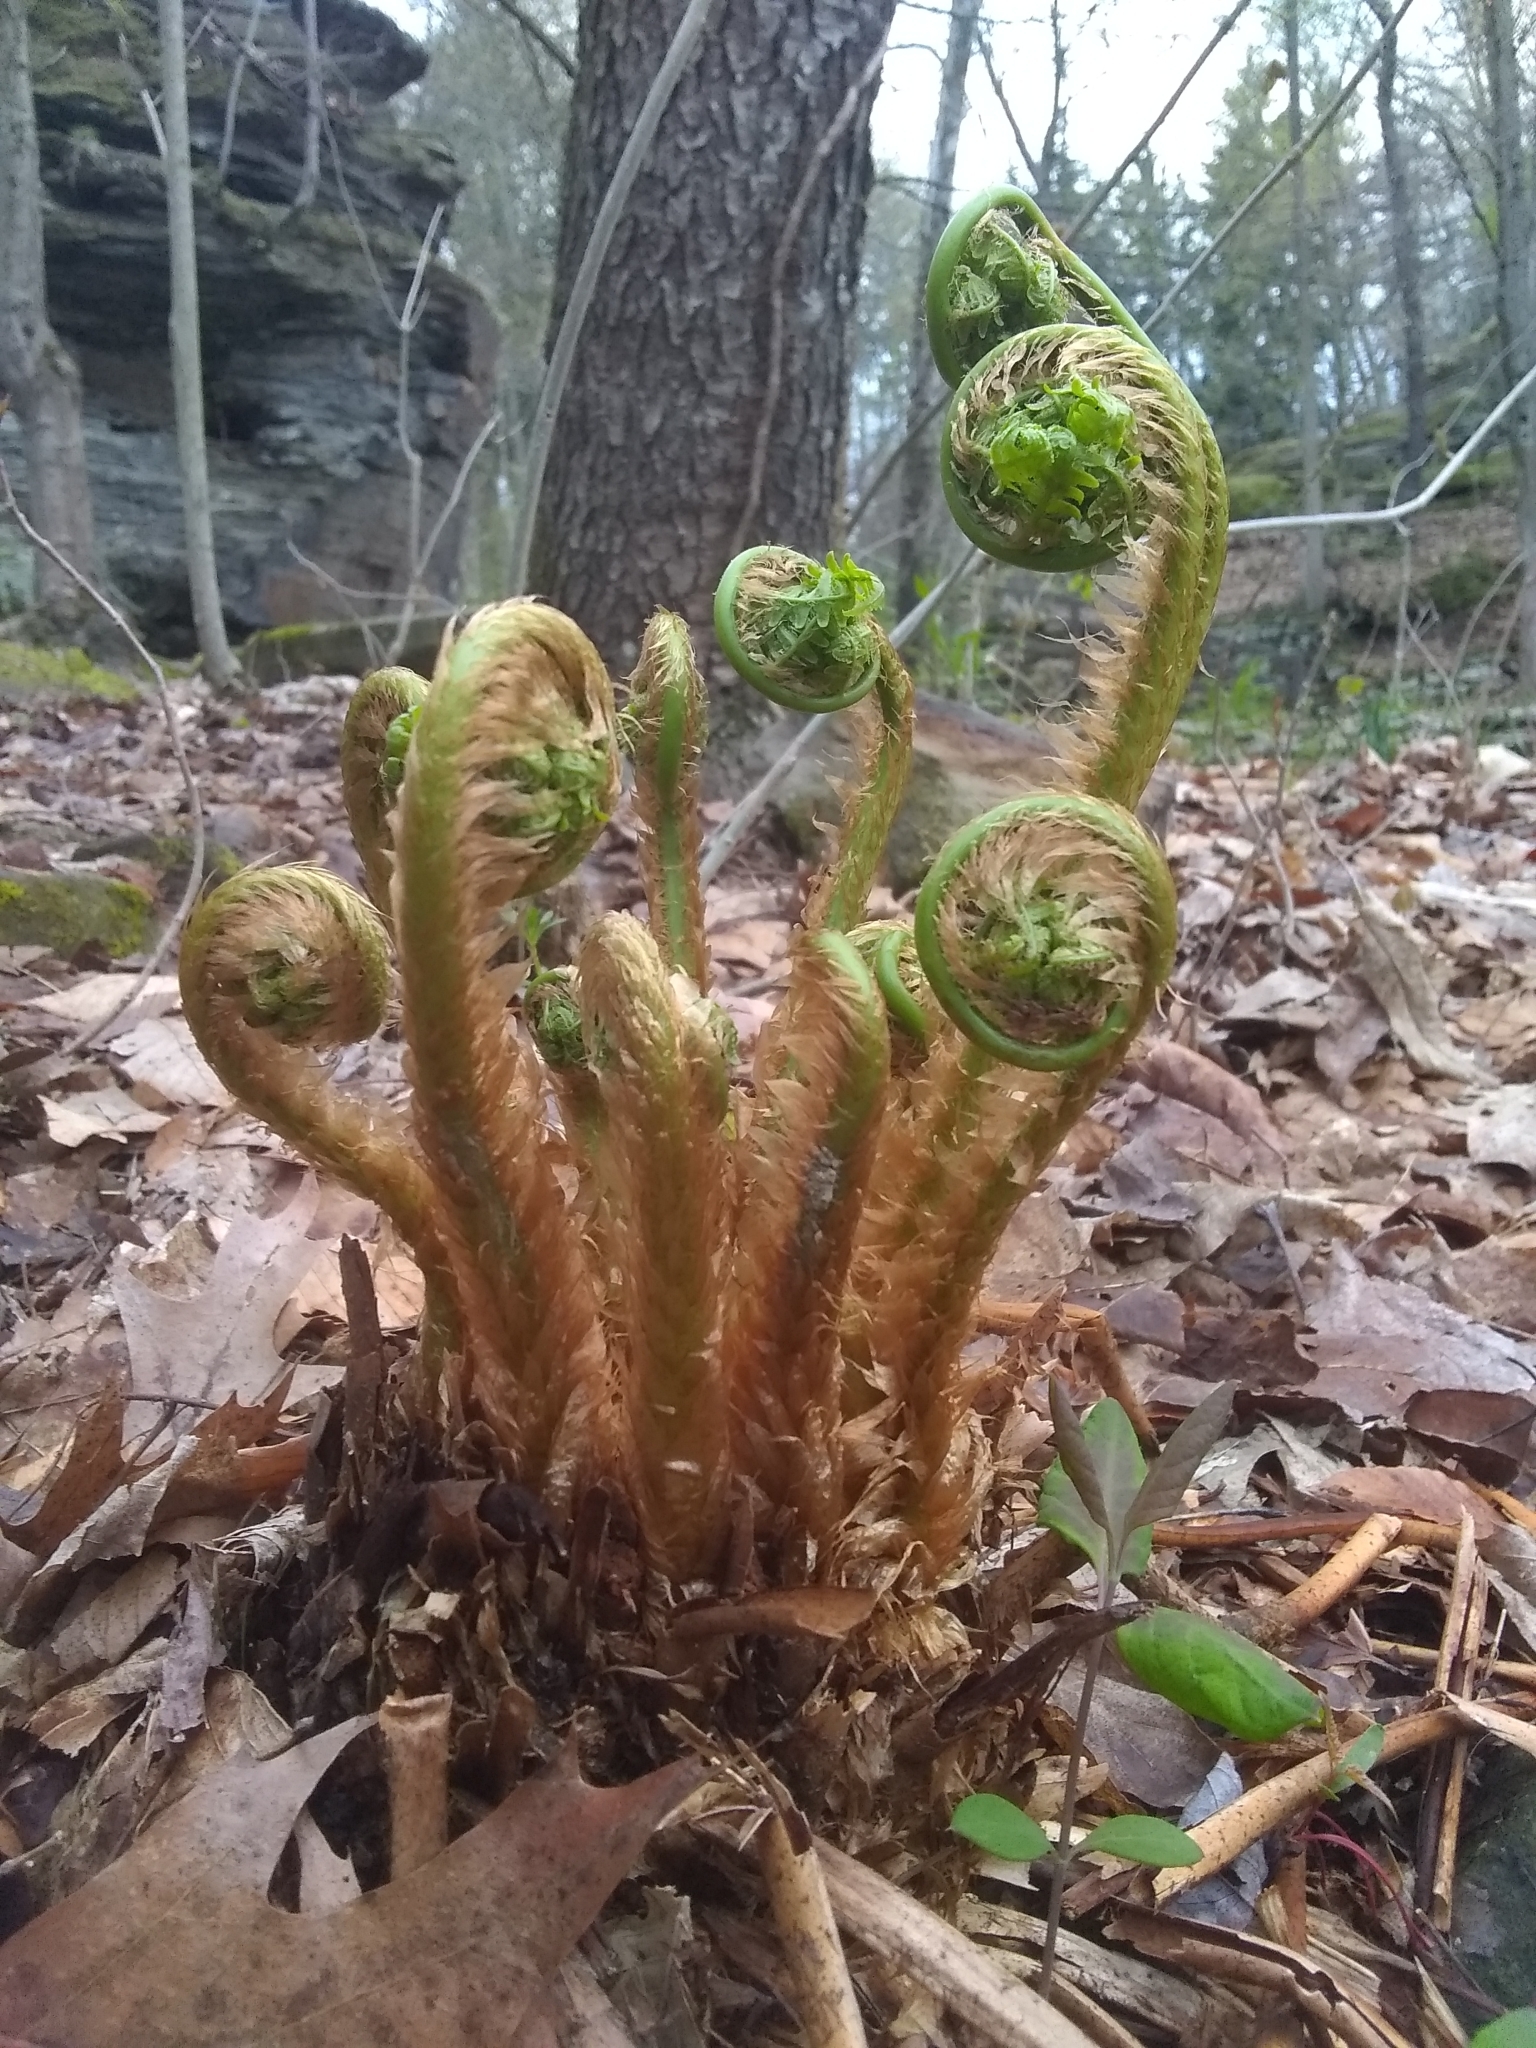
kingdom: Plantae
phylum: Tracheophyta
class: Polypodiopsida
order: Polypodiales
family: Dryopteridaceae
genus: Dryopteris
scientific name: Dryopteris marginalis
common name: Marginal wood fern
